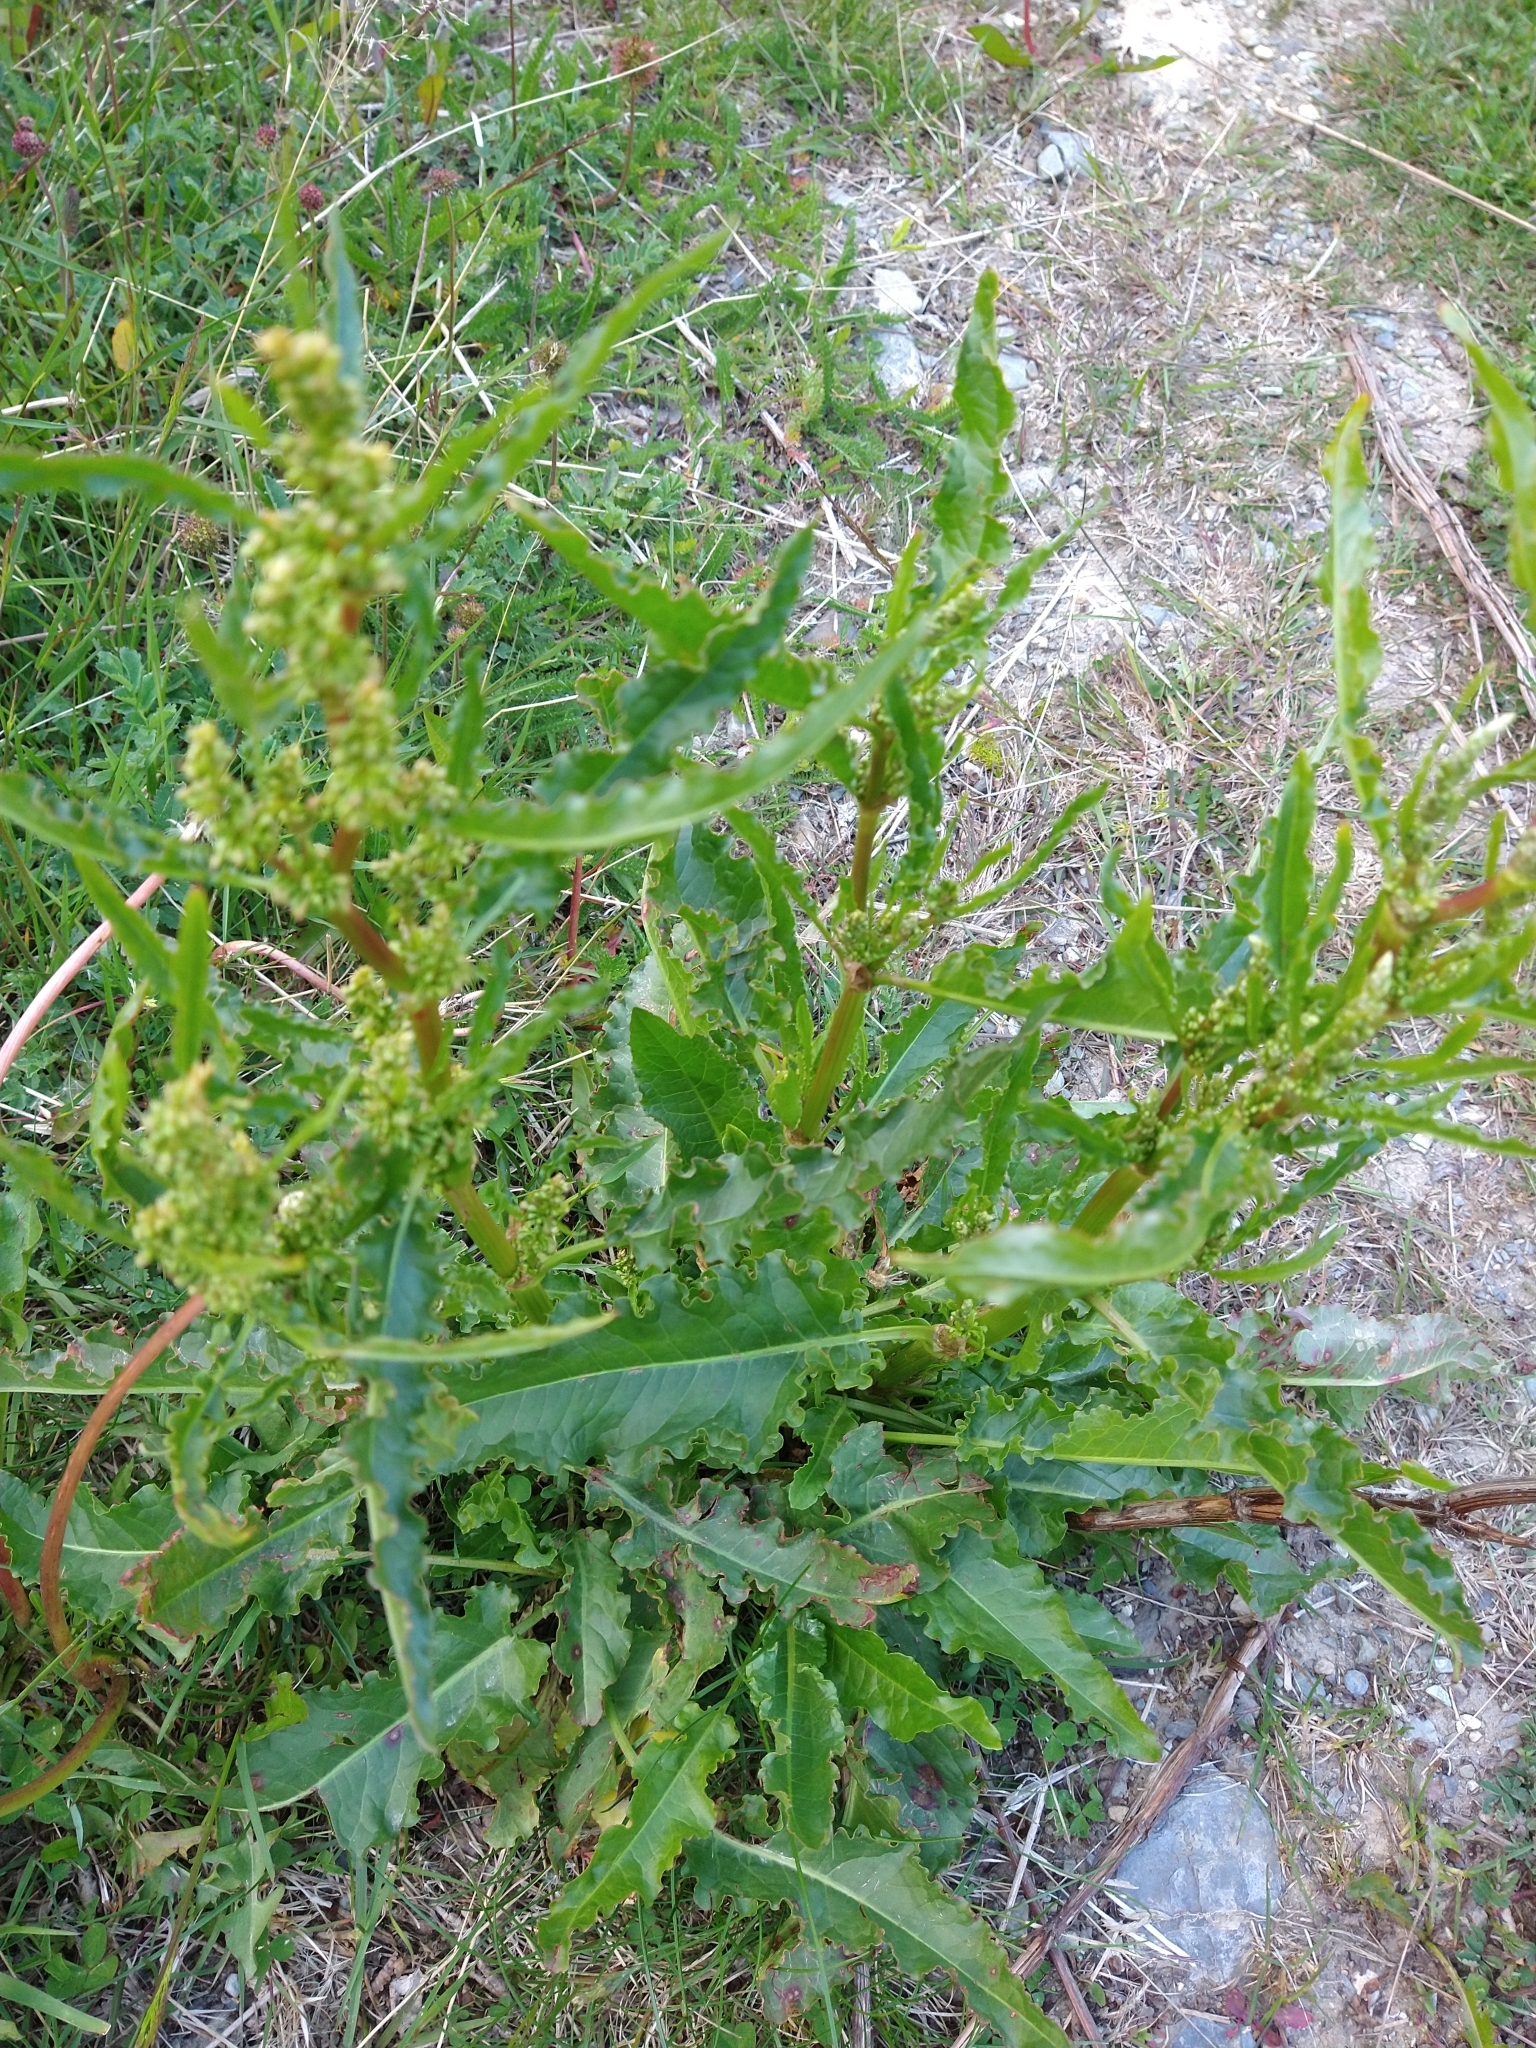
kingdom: Plantae
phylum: Tracheophyta
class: Magnoliopsida
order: Caryophyllales
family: Polygonaceae
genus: Rumex
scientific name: Rumex crispus
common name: Curled dock
